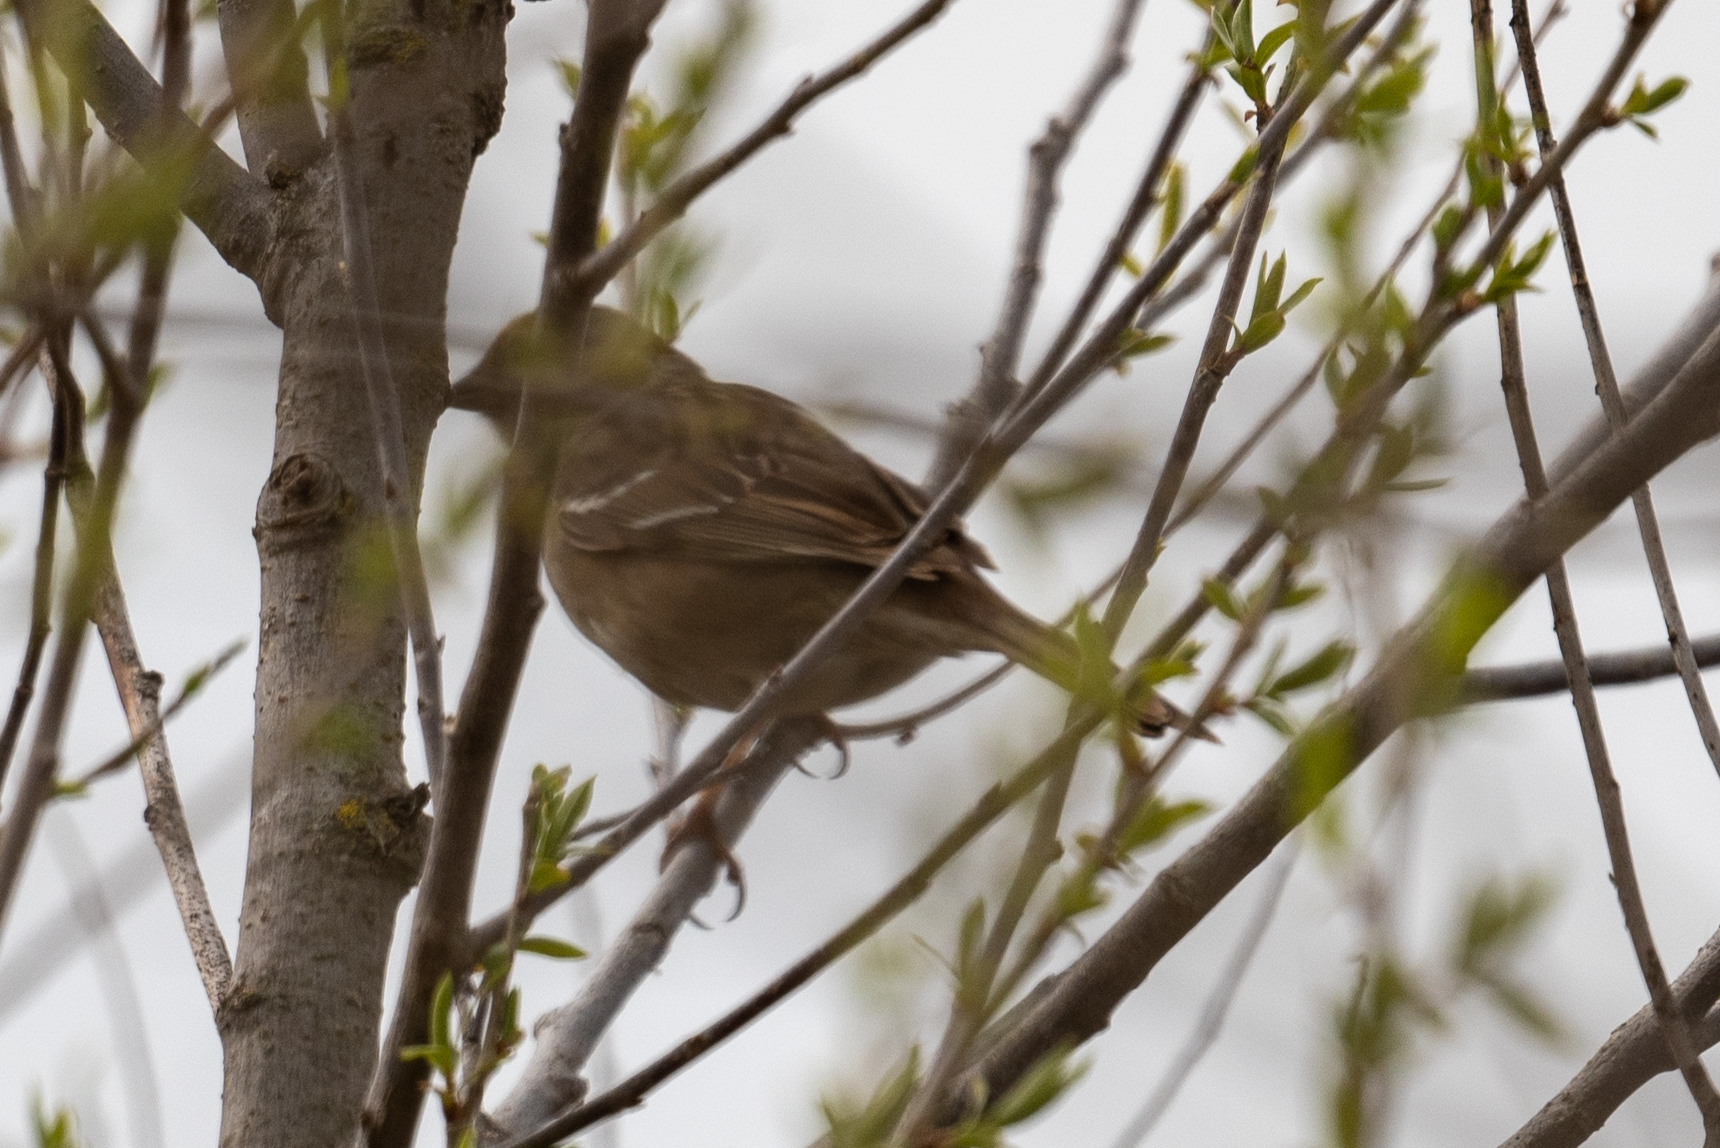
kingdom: Animalia
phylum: Chordata
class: Aves
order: Passeriformes
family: Passerellidae
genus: Zonotrichia
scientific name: Zonotrichia atricapilla
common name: Golden-crowned sparrow
